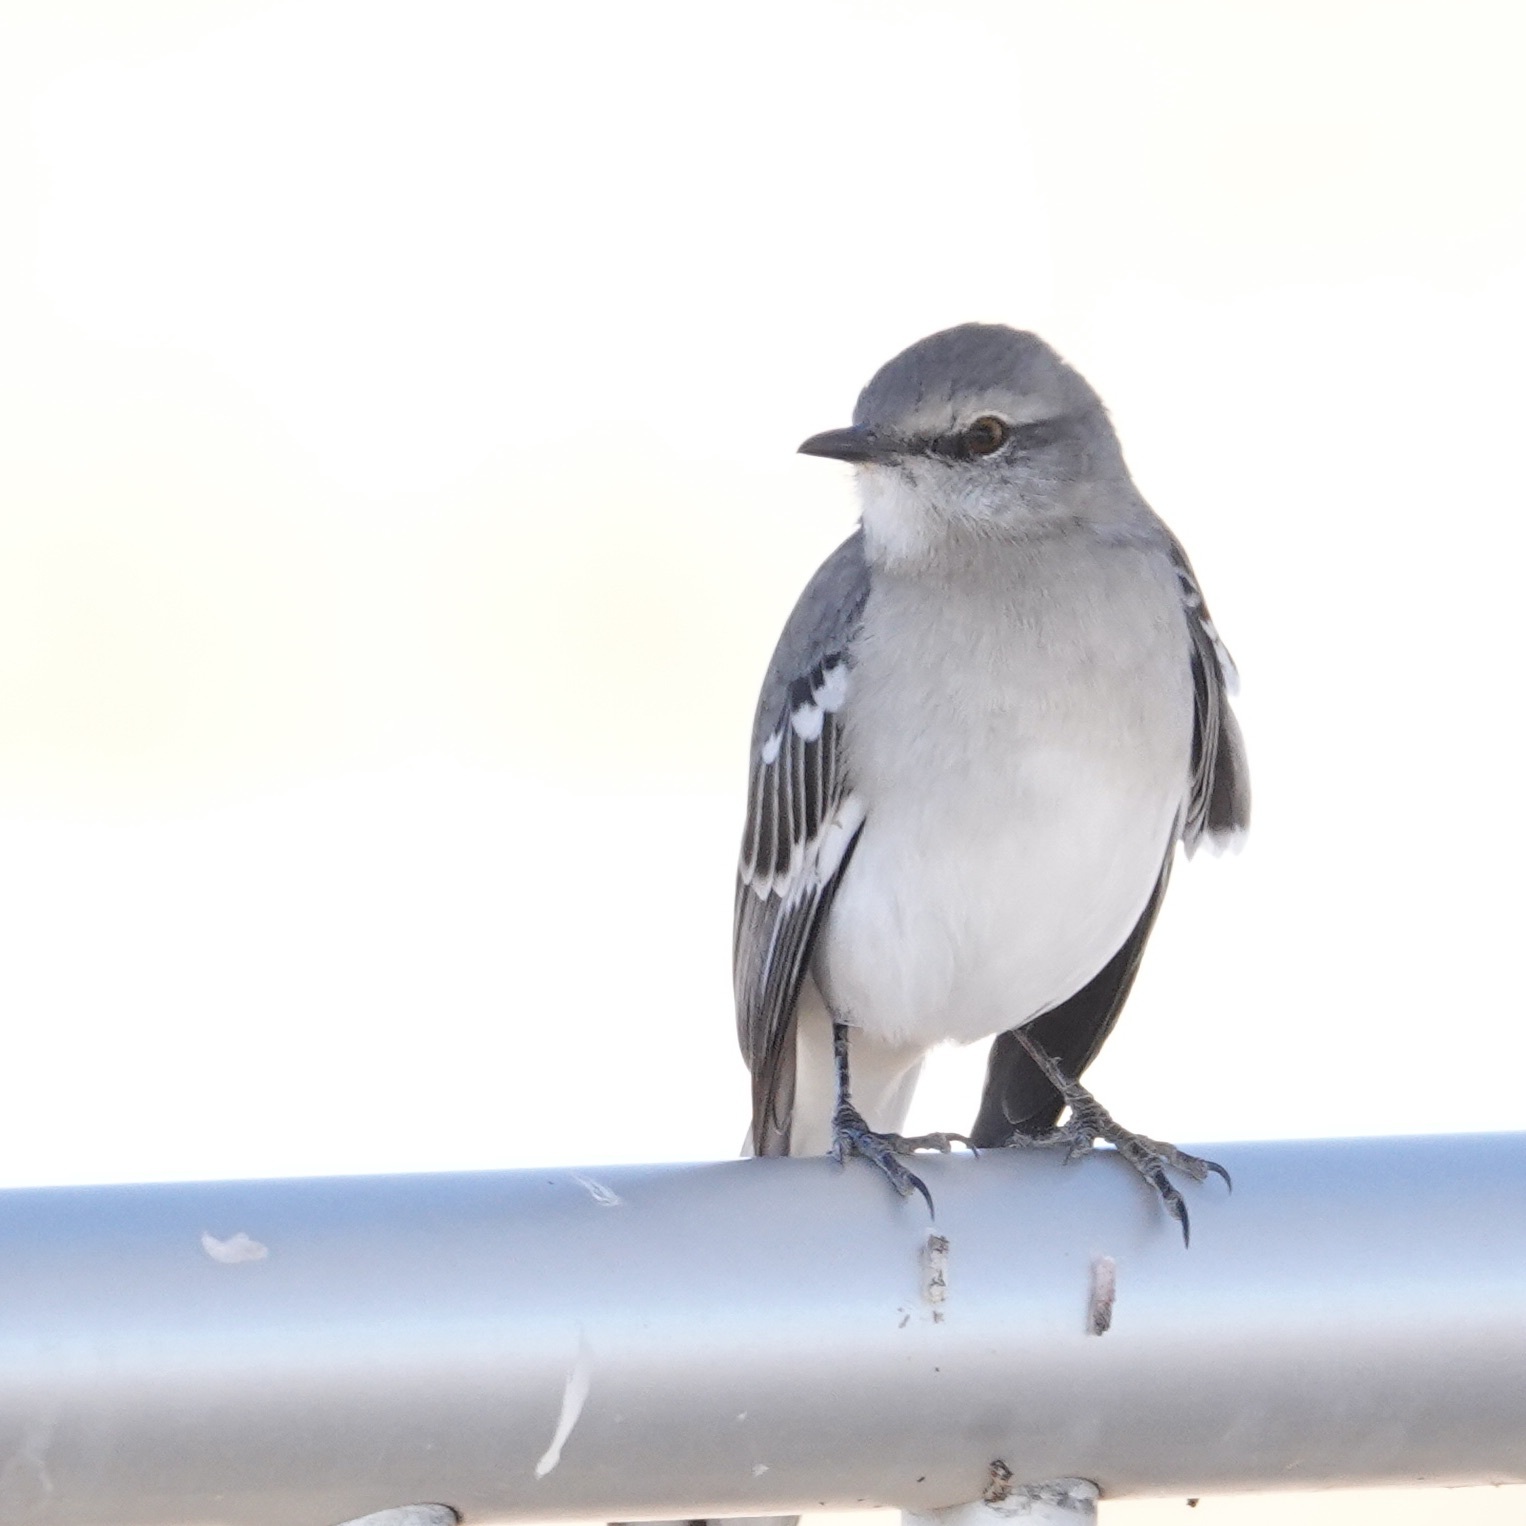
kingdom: Animalia
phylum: Chordata
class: Aves
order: Passeriformes
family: Mimidae
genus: Mimus
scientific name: Mimus polyglottos
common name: Northern mockingbird
